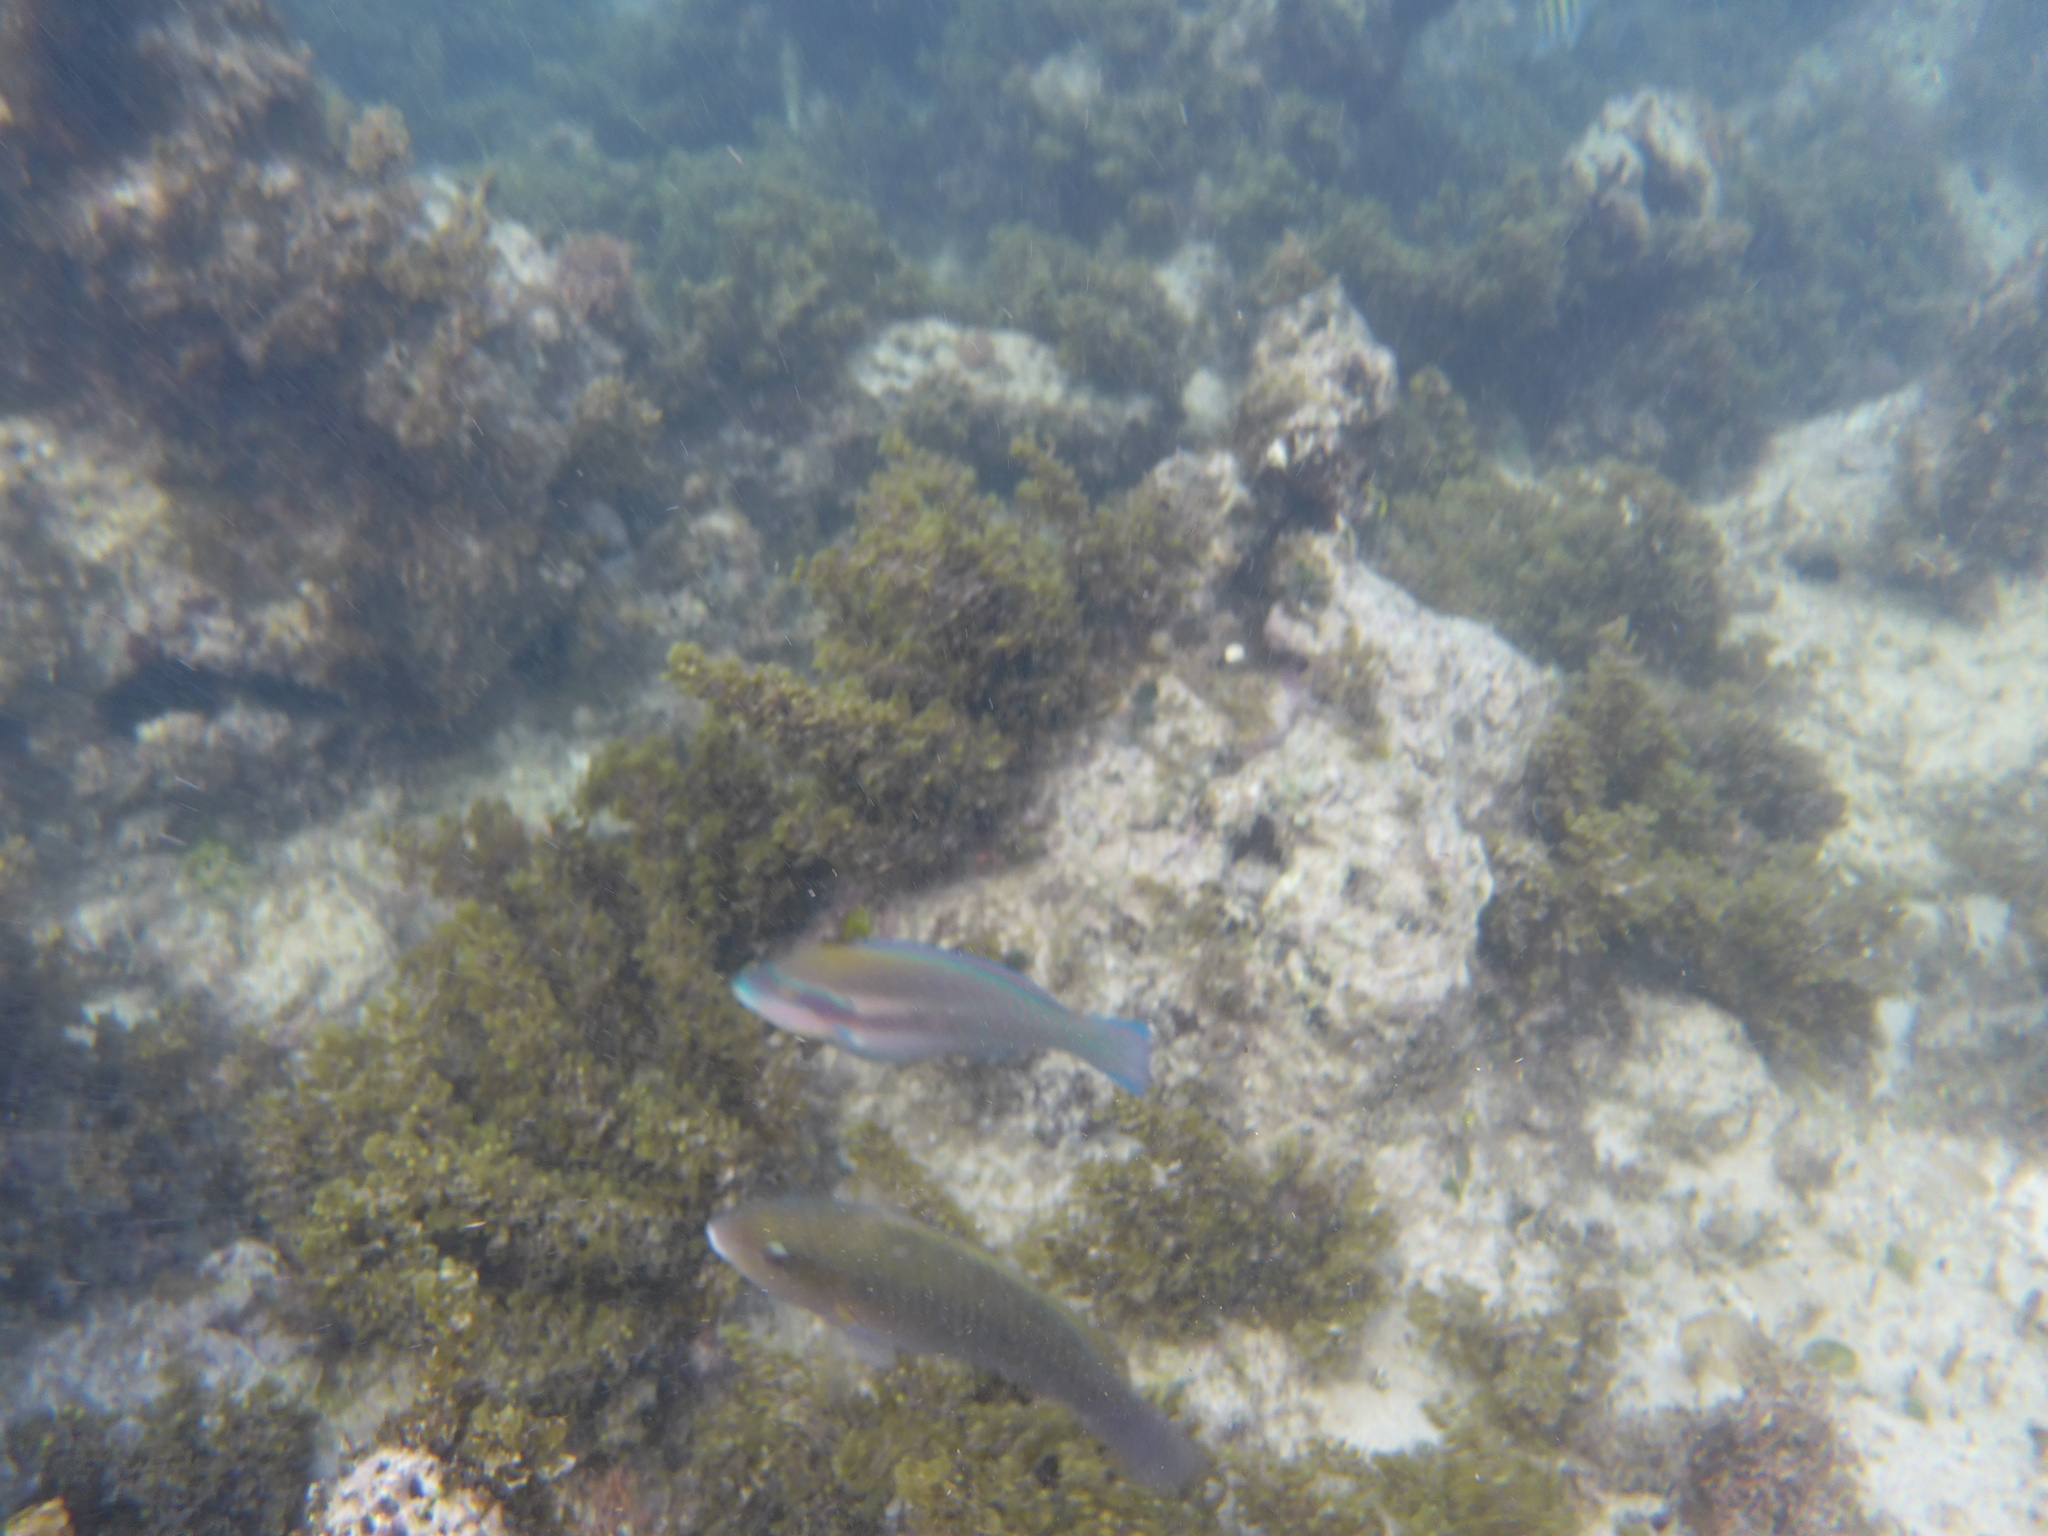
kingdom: Animalia
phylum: Chordata
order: Perciformes
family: Scaridae
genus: Scarus
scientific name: Scarus iseri
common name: Striped parrotfish
